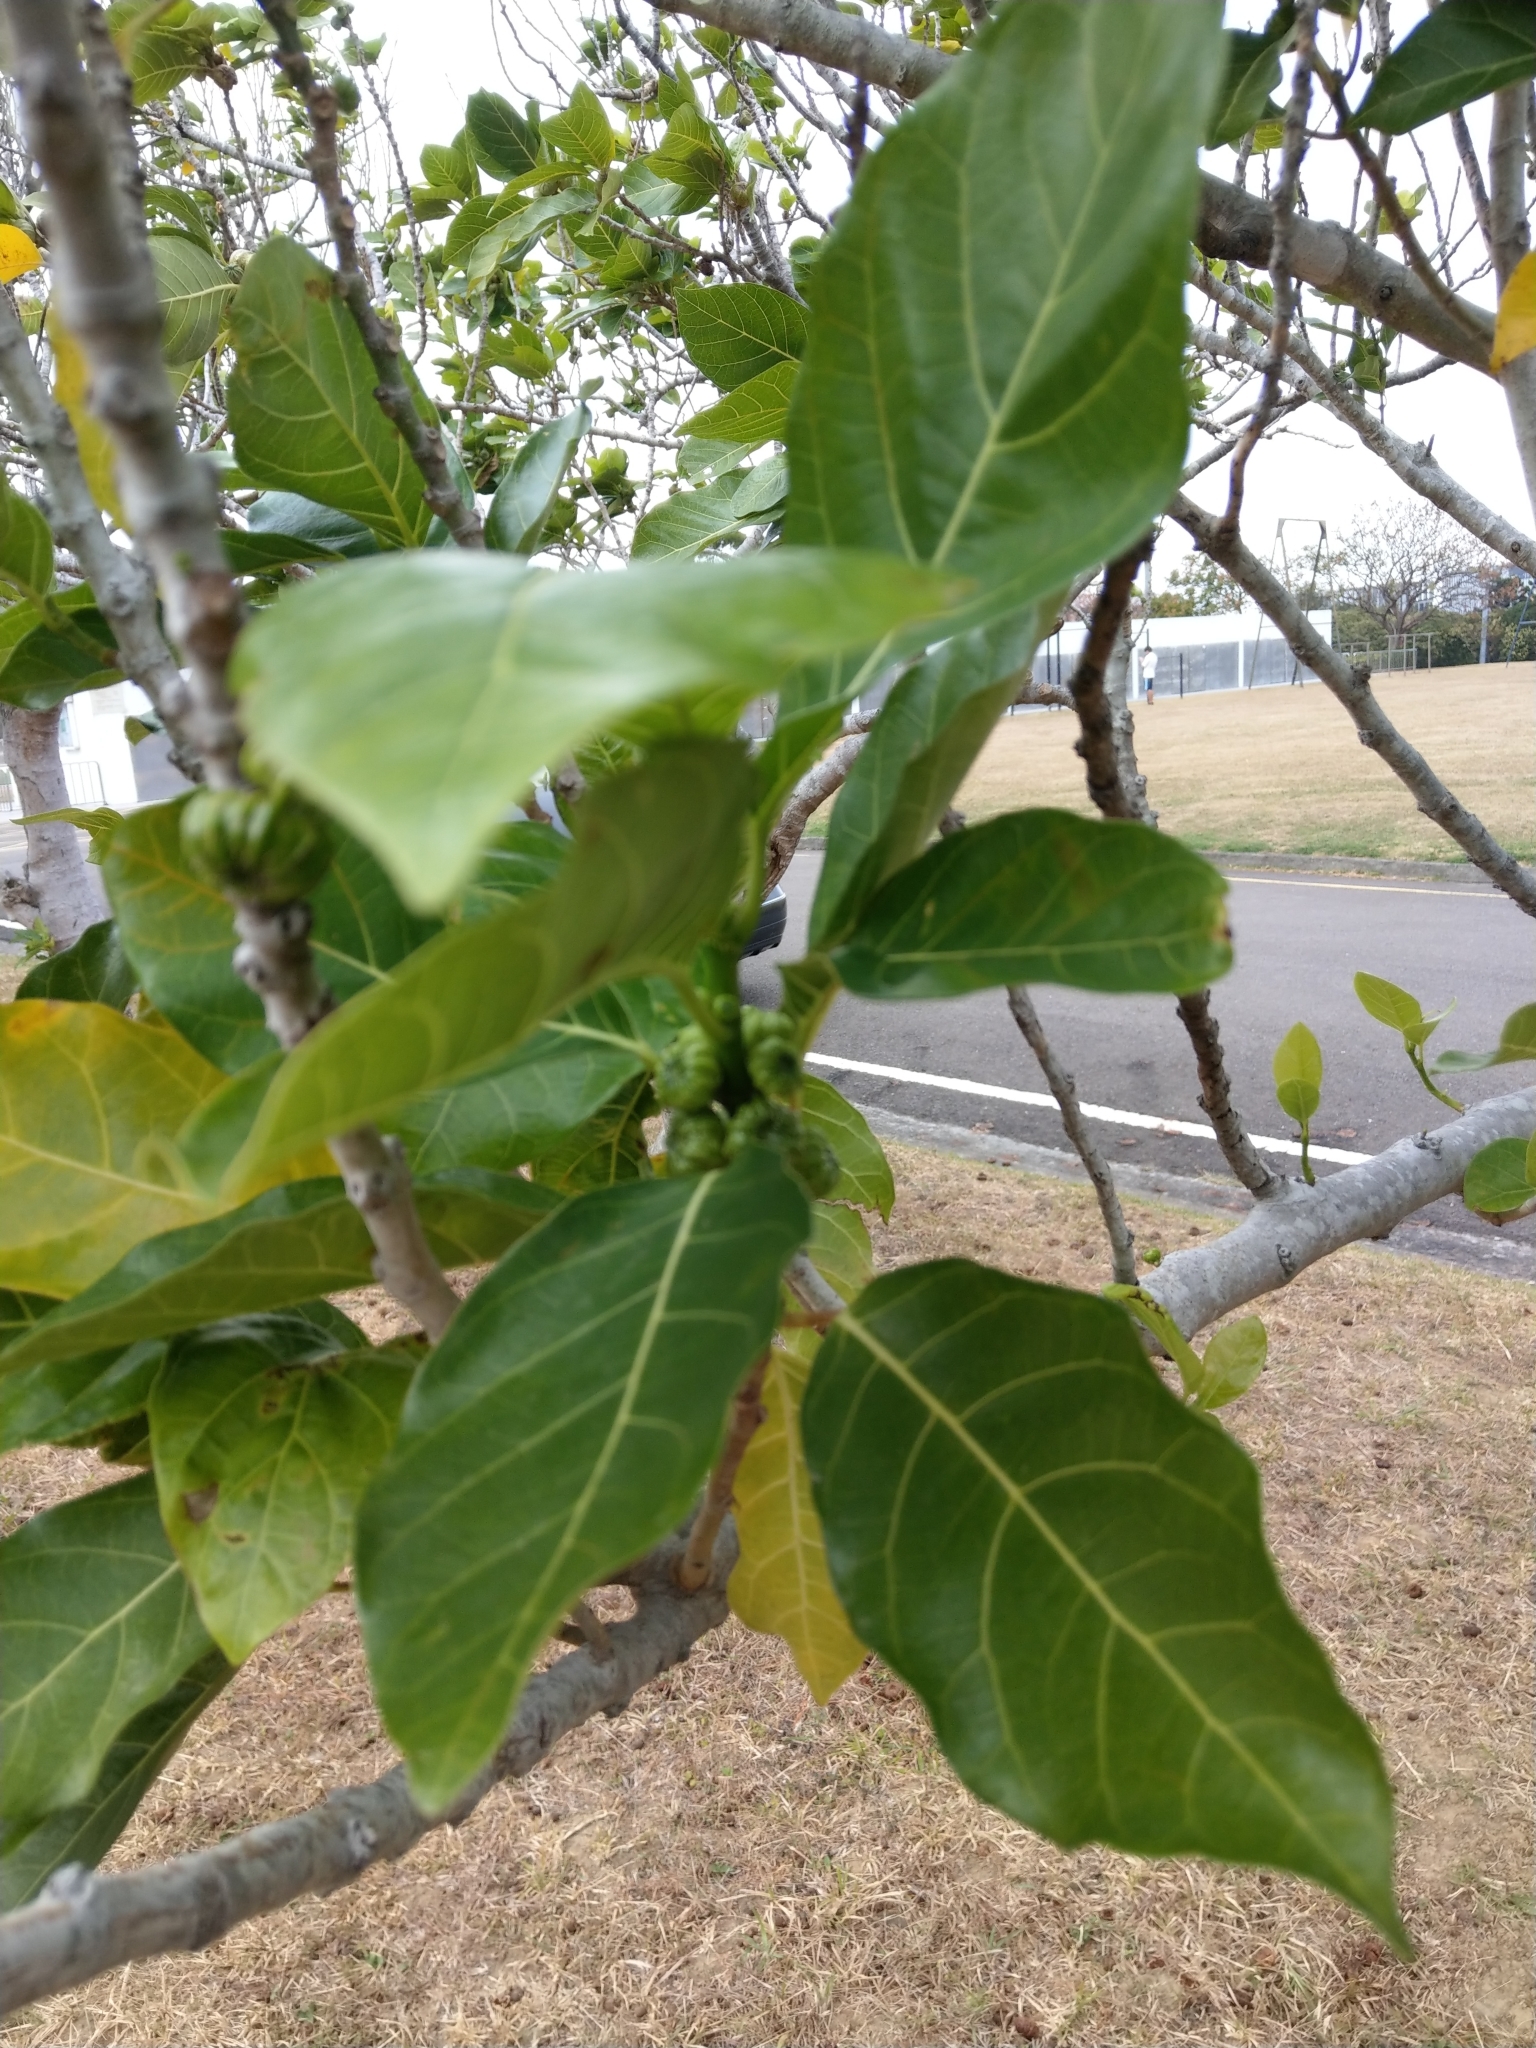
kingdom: Plantae
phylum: Tracheophyta
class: Magnoliopsida
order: Rosales
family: Moraceae
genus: Ficus
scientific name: Ficus septica
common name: Septic fig
